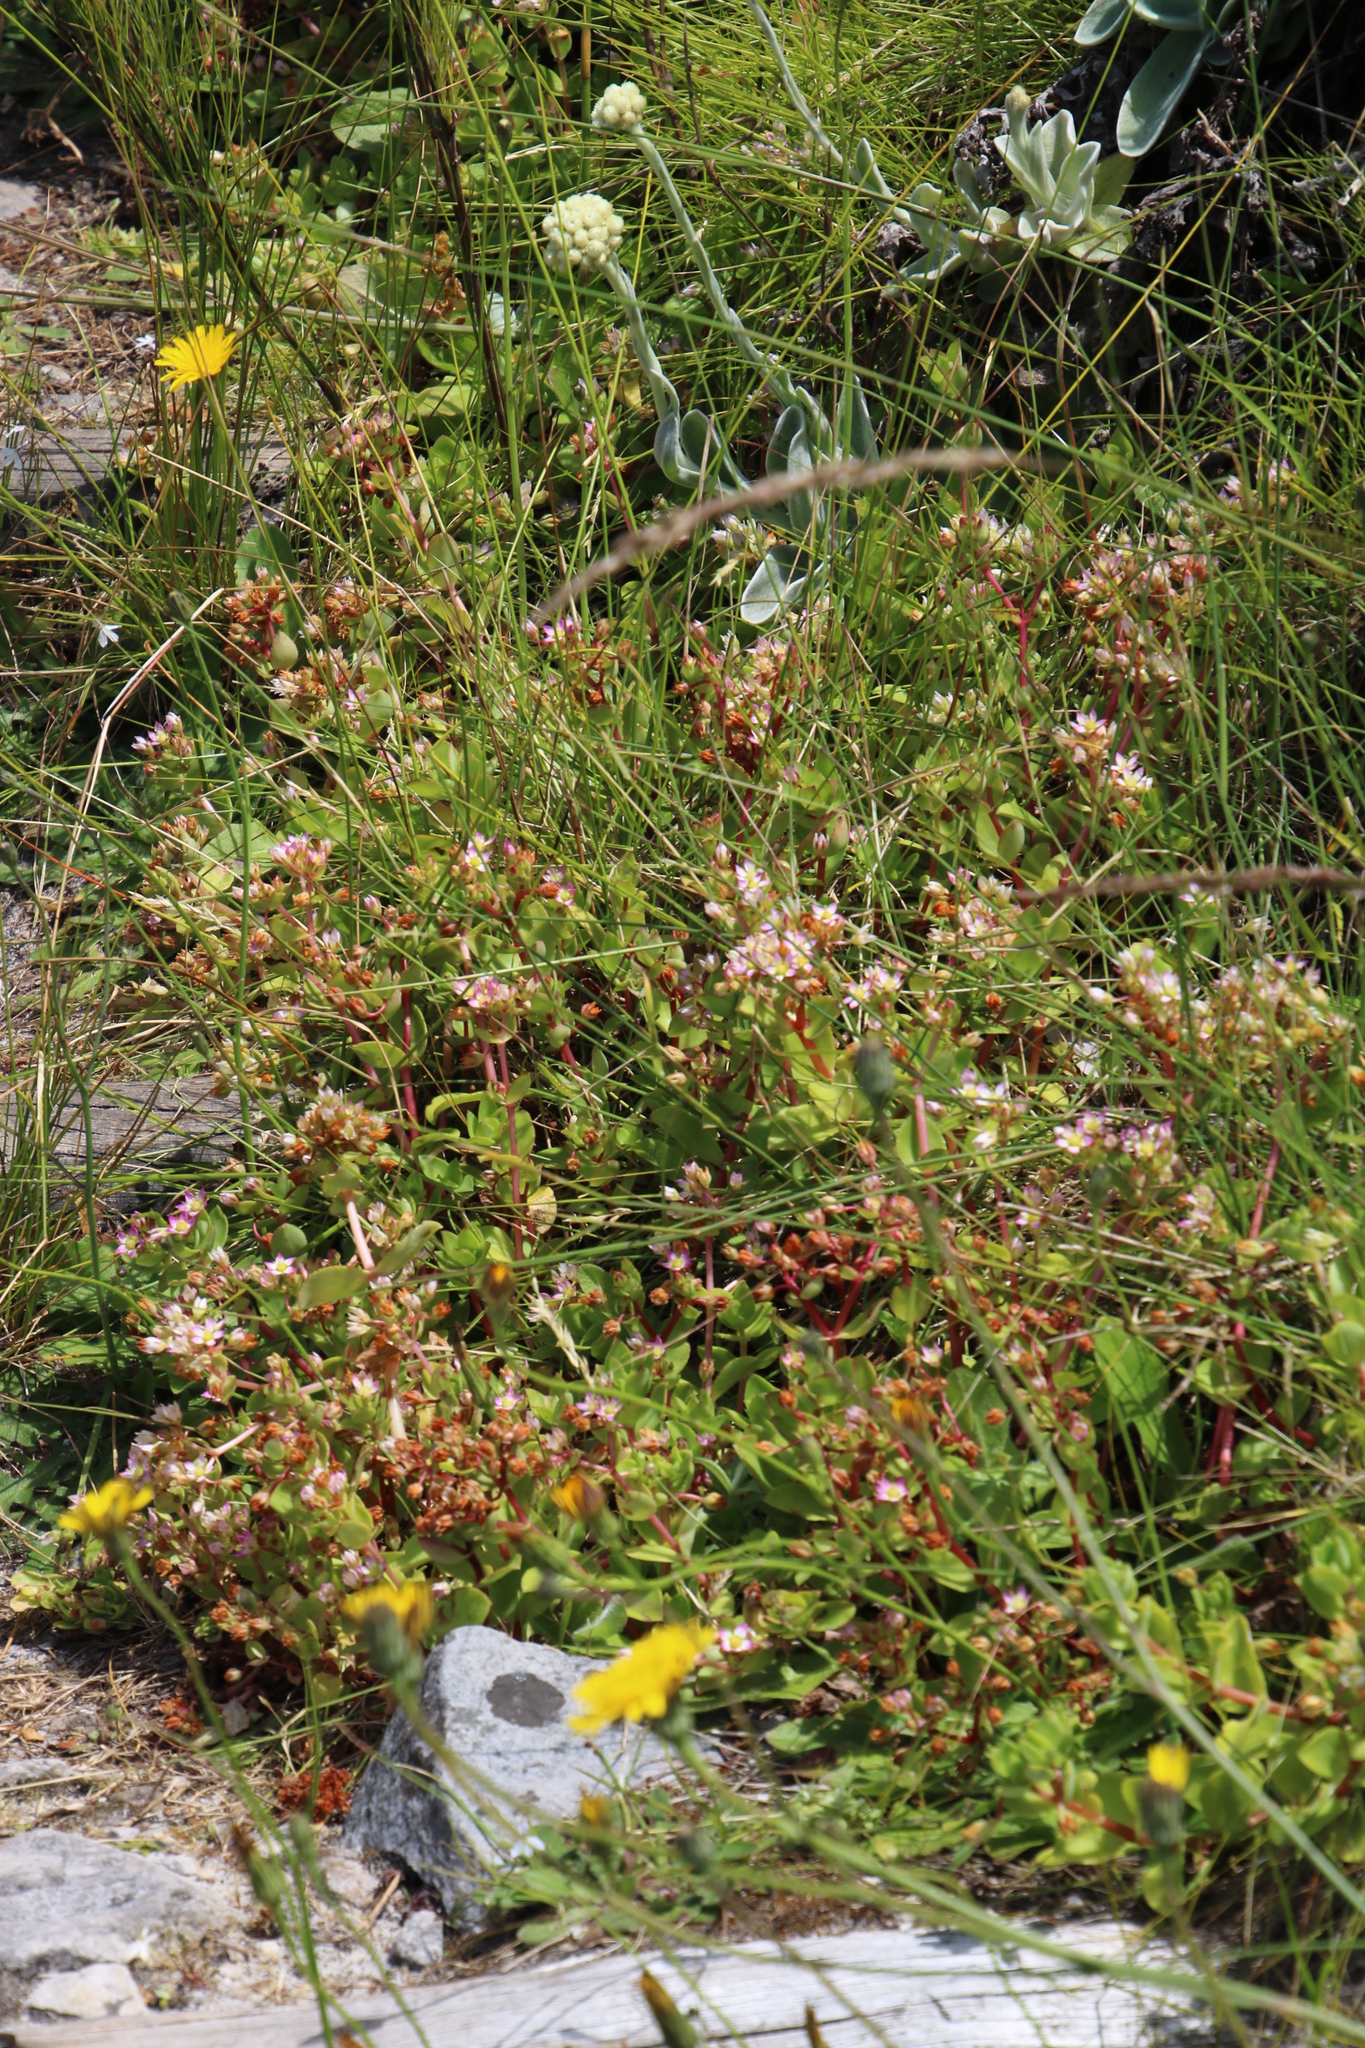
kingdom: Plantae
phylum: Tracheophyta
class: Magnoliopsida
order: Saxifragales
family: Crassulaceae
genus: Crassula
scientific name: Crassula pellucida
